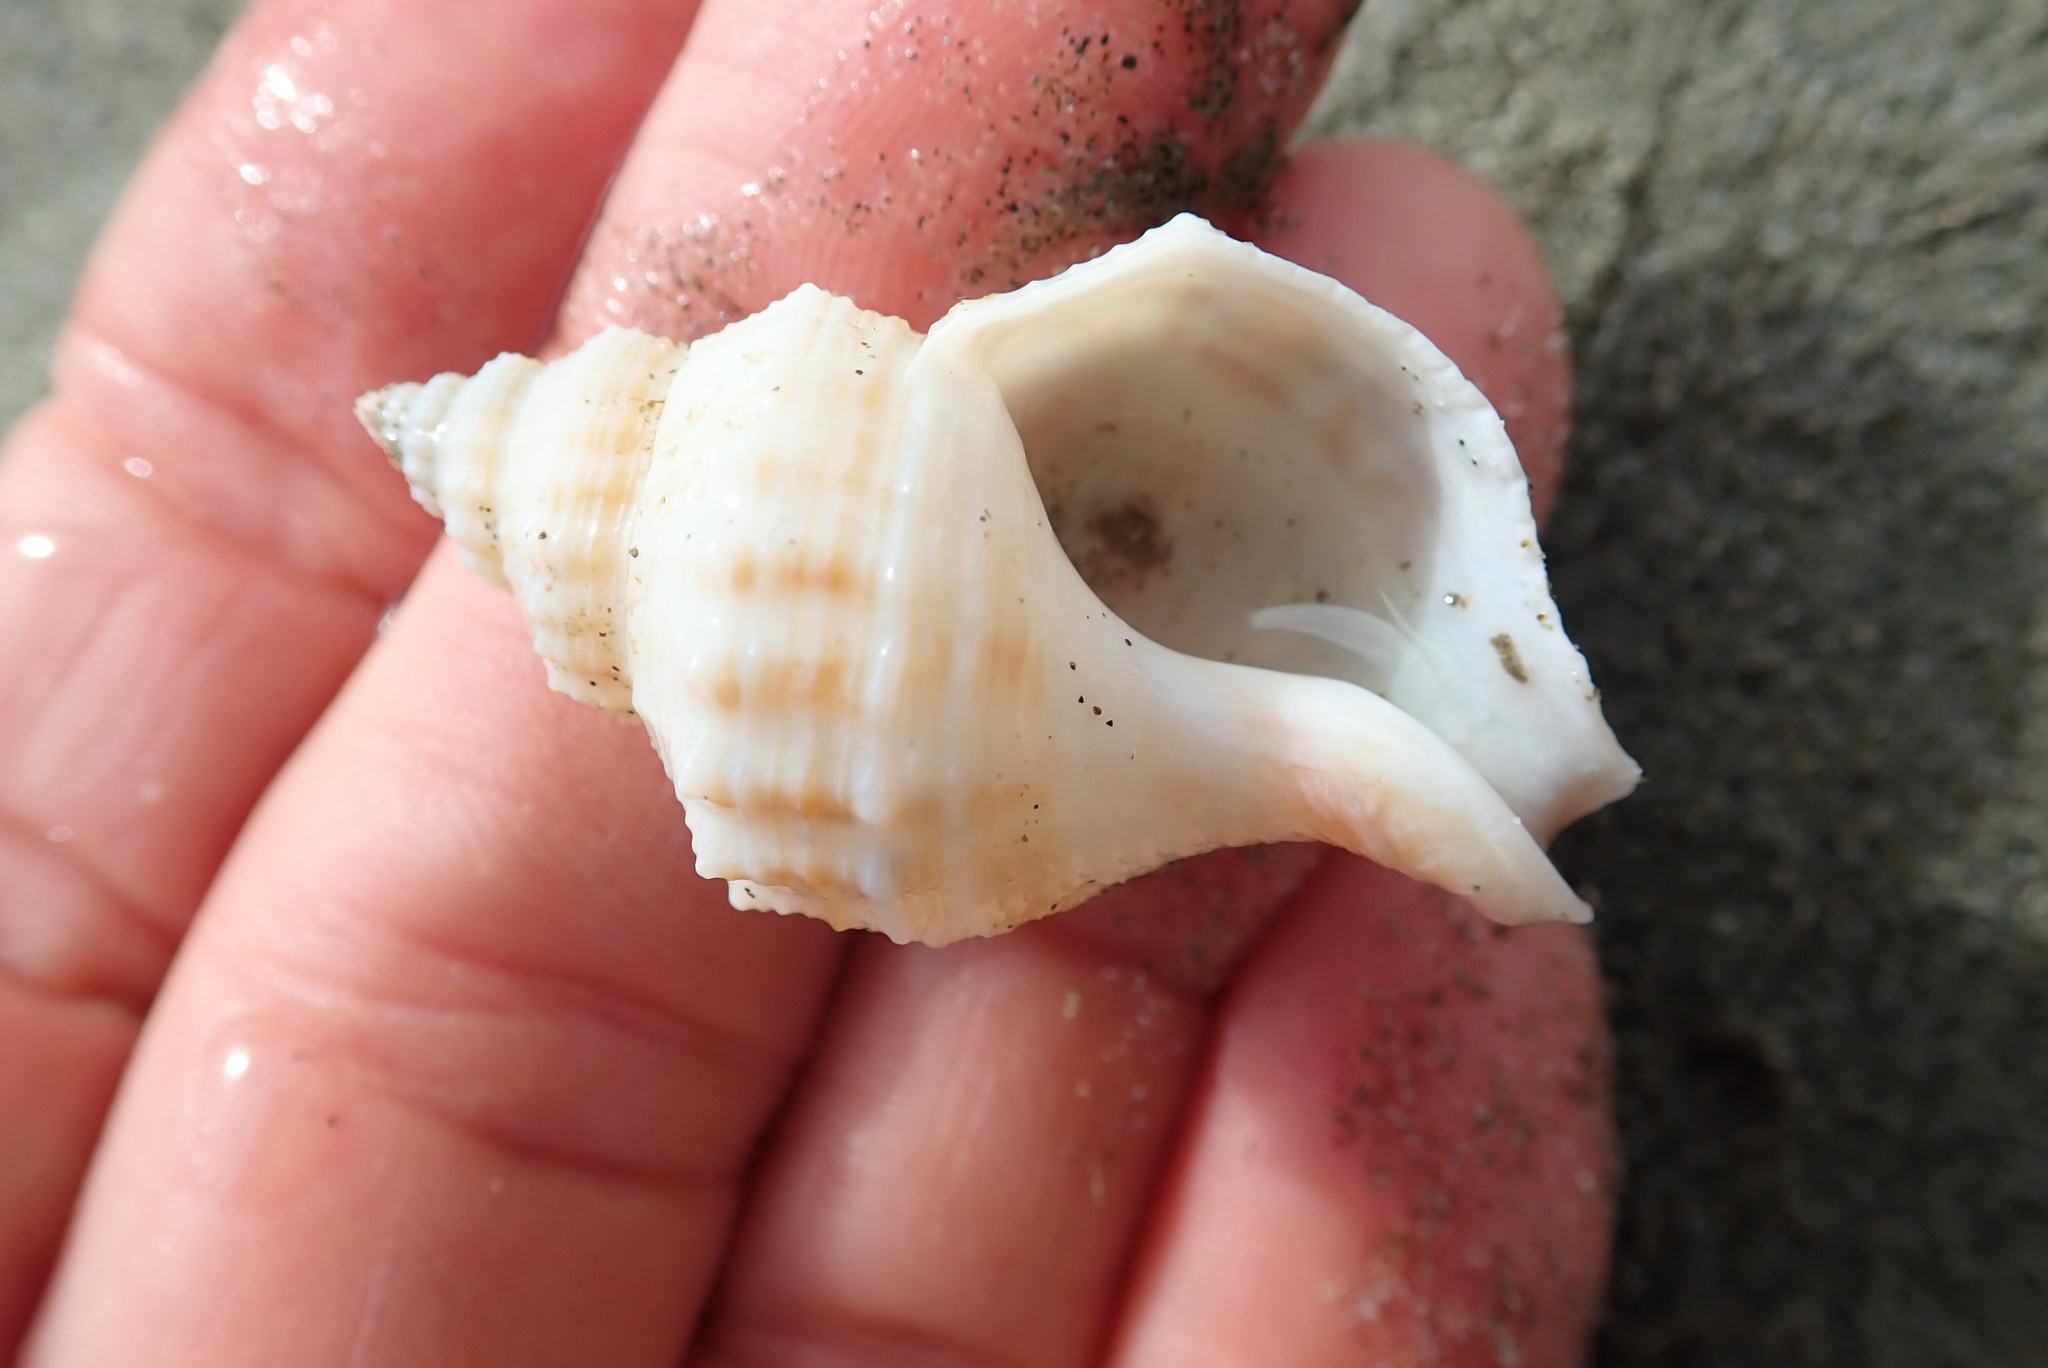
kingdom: Animalia
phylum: Mollusca
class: Gastropoda
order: Neogastropoda
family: Prosiphonidae
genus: Austrofusus
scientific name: Austrofusus glans
